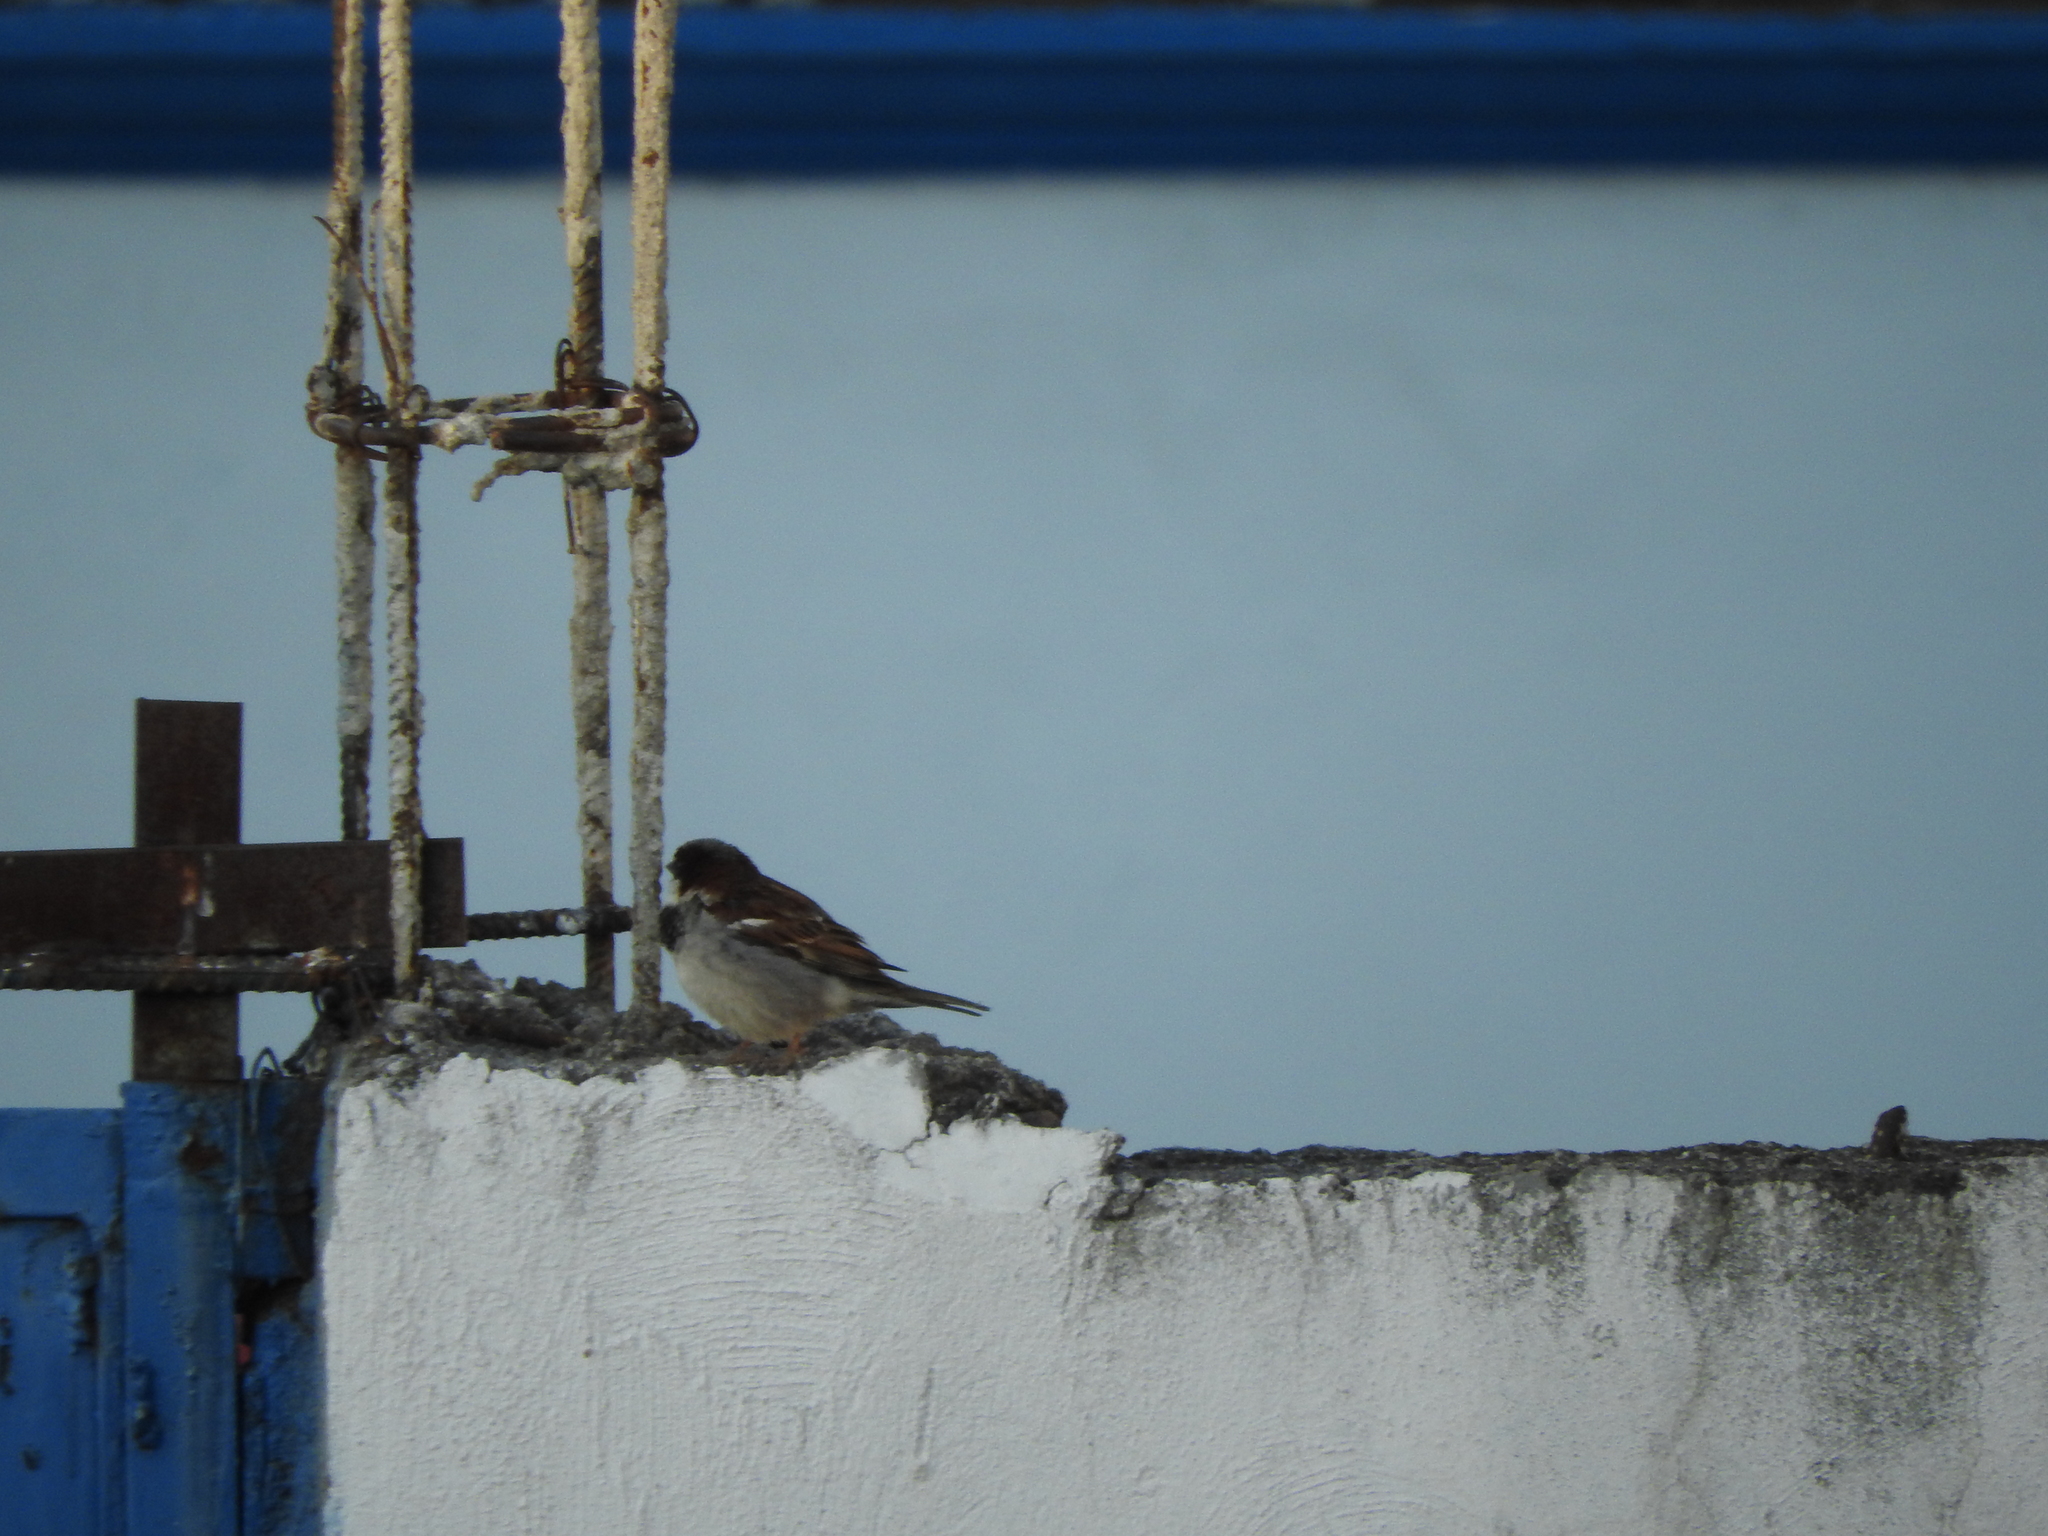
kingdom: Animalia
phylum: Chordata
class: Aves
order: Passeriformes
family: Passeridae
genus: Passer
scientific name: Passer domesticus
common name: House sparrow
